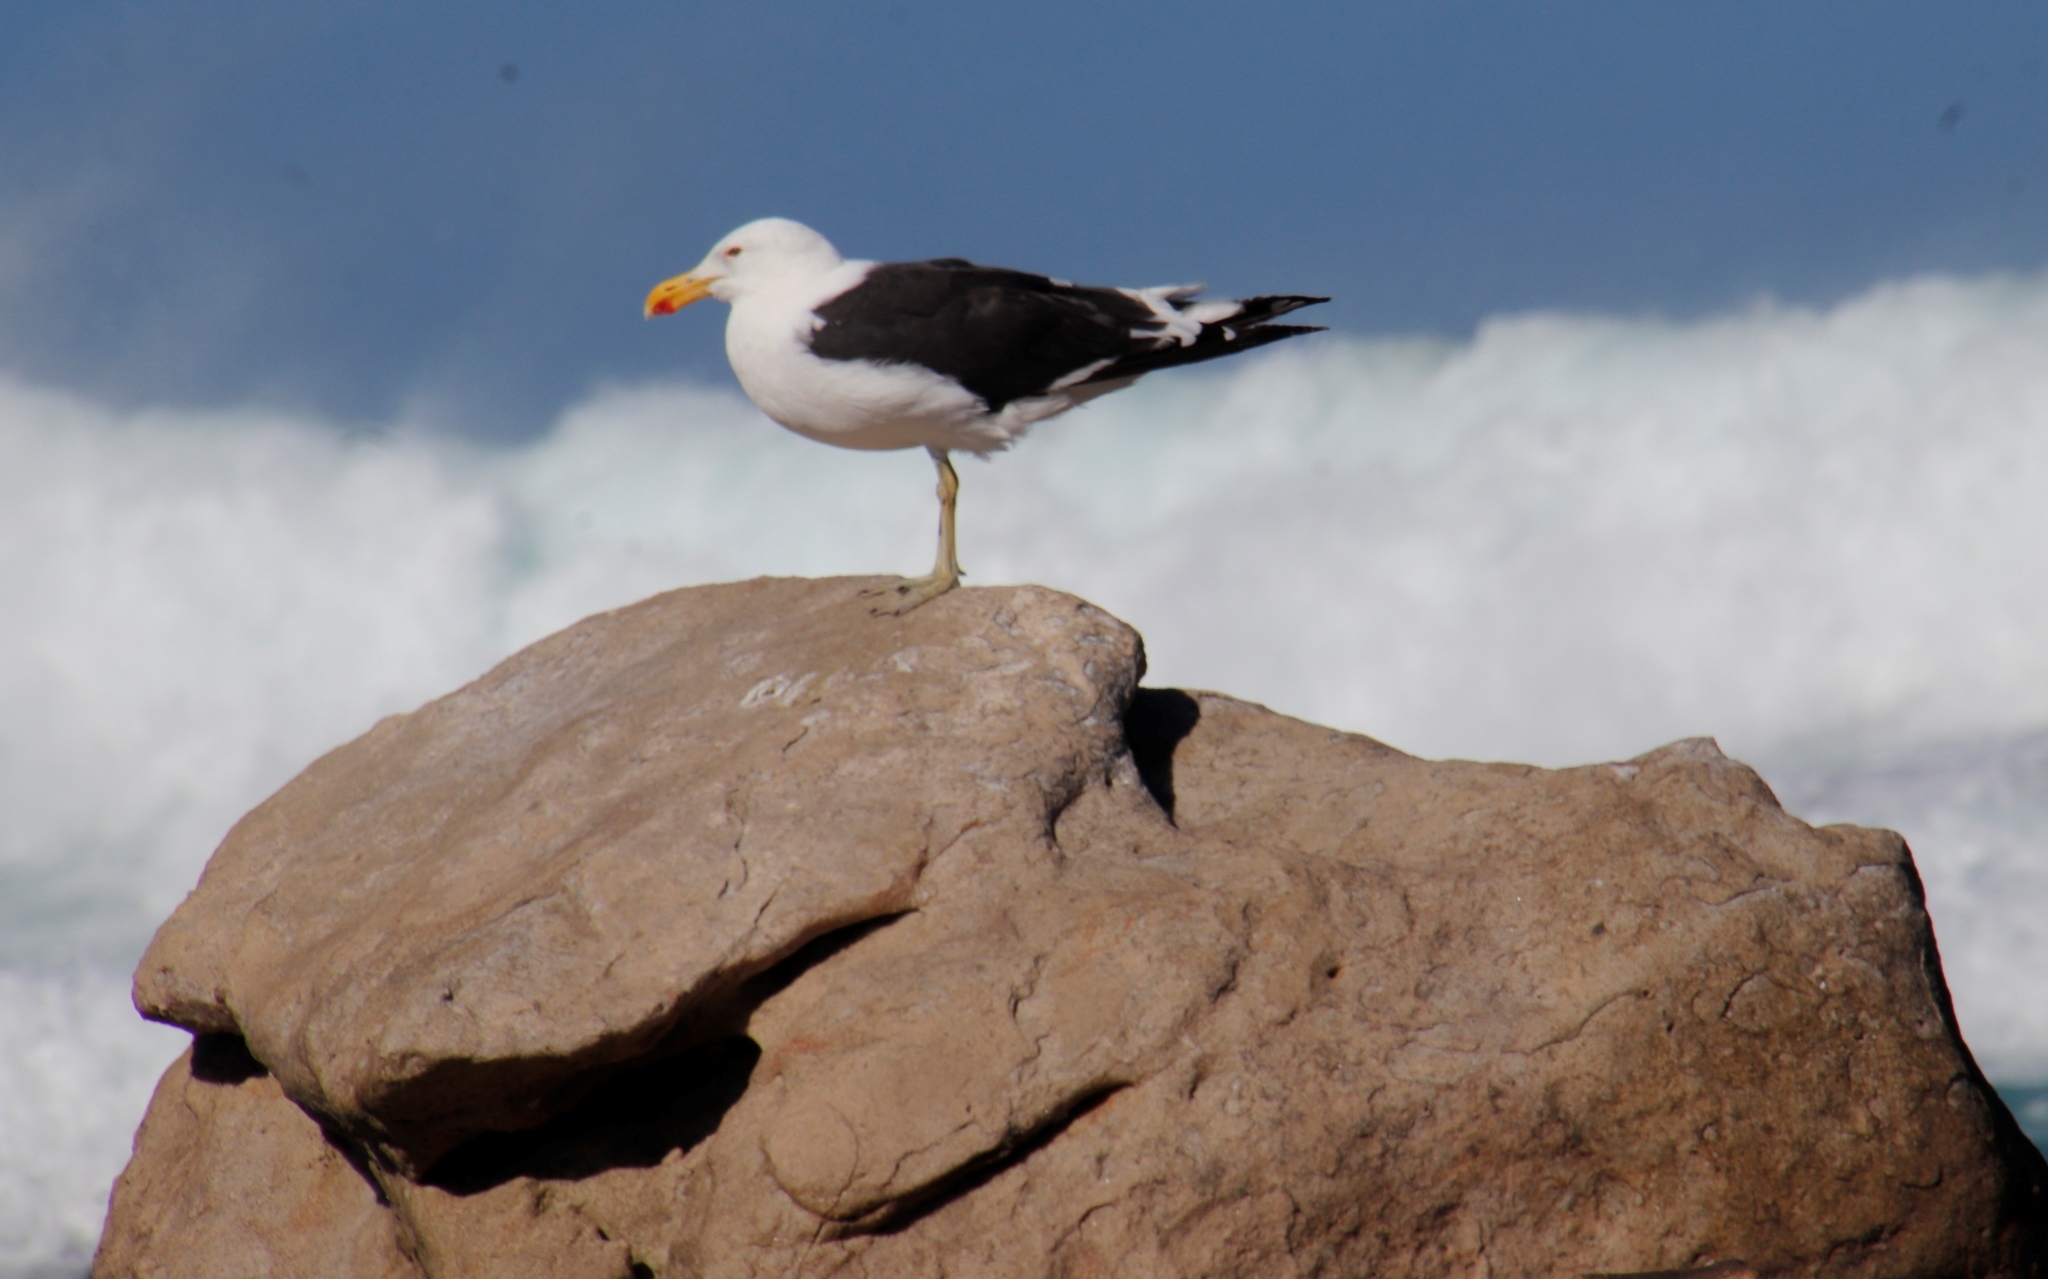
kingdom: Animalia
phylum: Chordata
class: Aves
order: Charadriiformes
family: Laridae
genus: Larus
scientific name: Larus dominicanus
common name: Kelp gull
